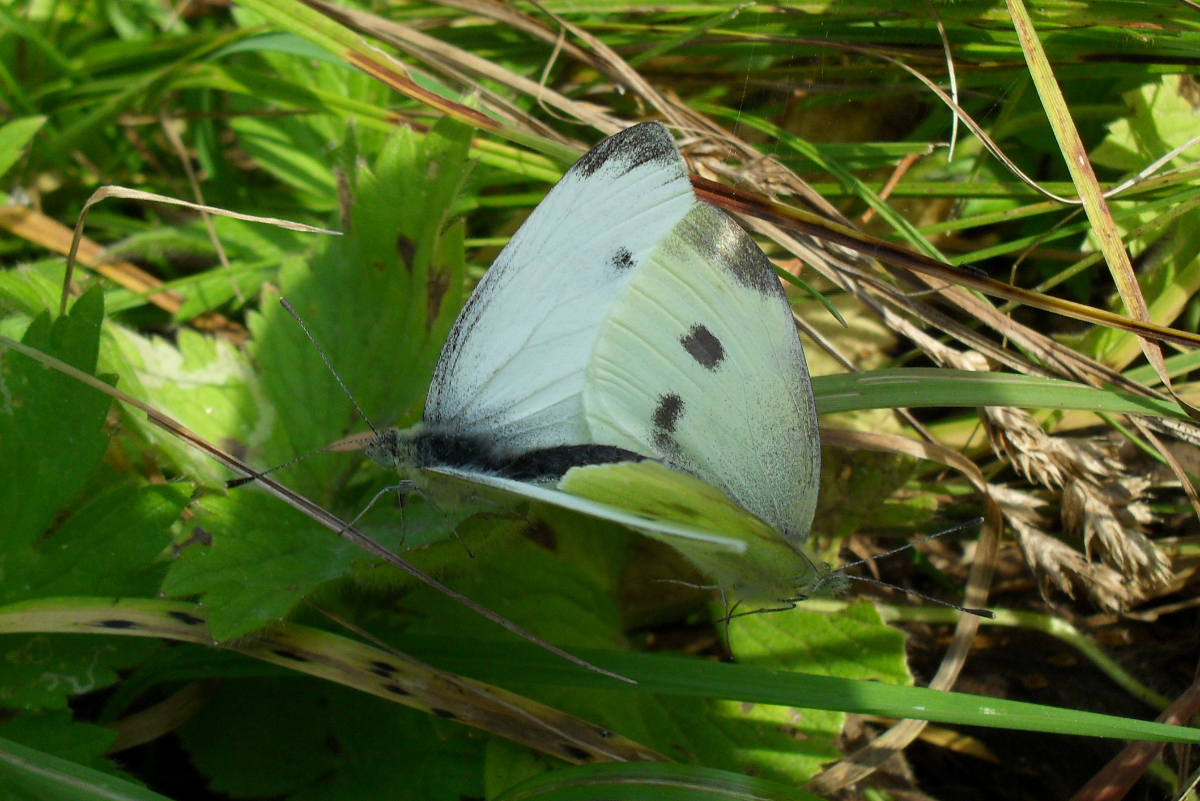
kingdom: Animalia
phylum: Arthropoda
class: Insecta
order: Lepidoptera
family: Pieridae
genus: Pieris
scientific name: Pieris rapae
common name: Small white
